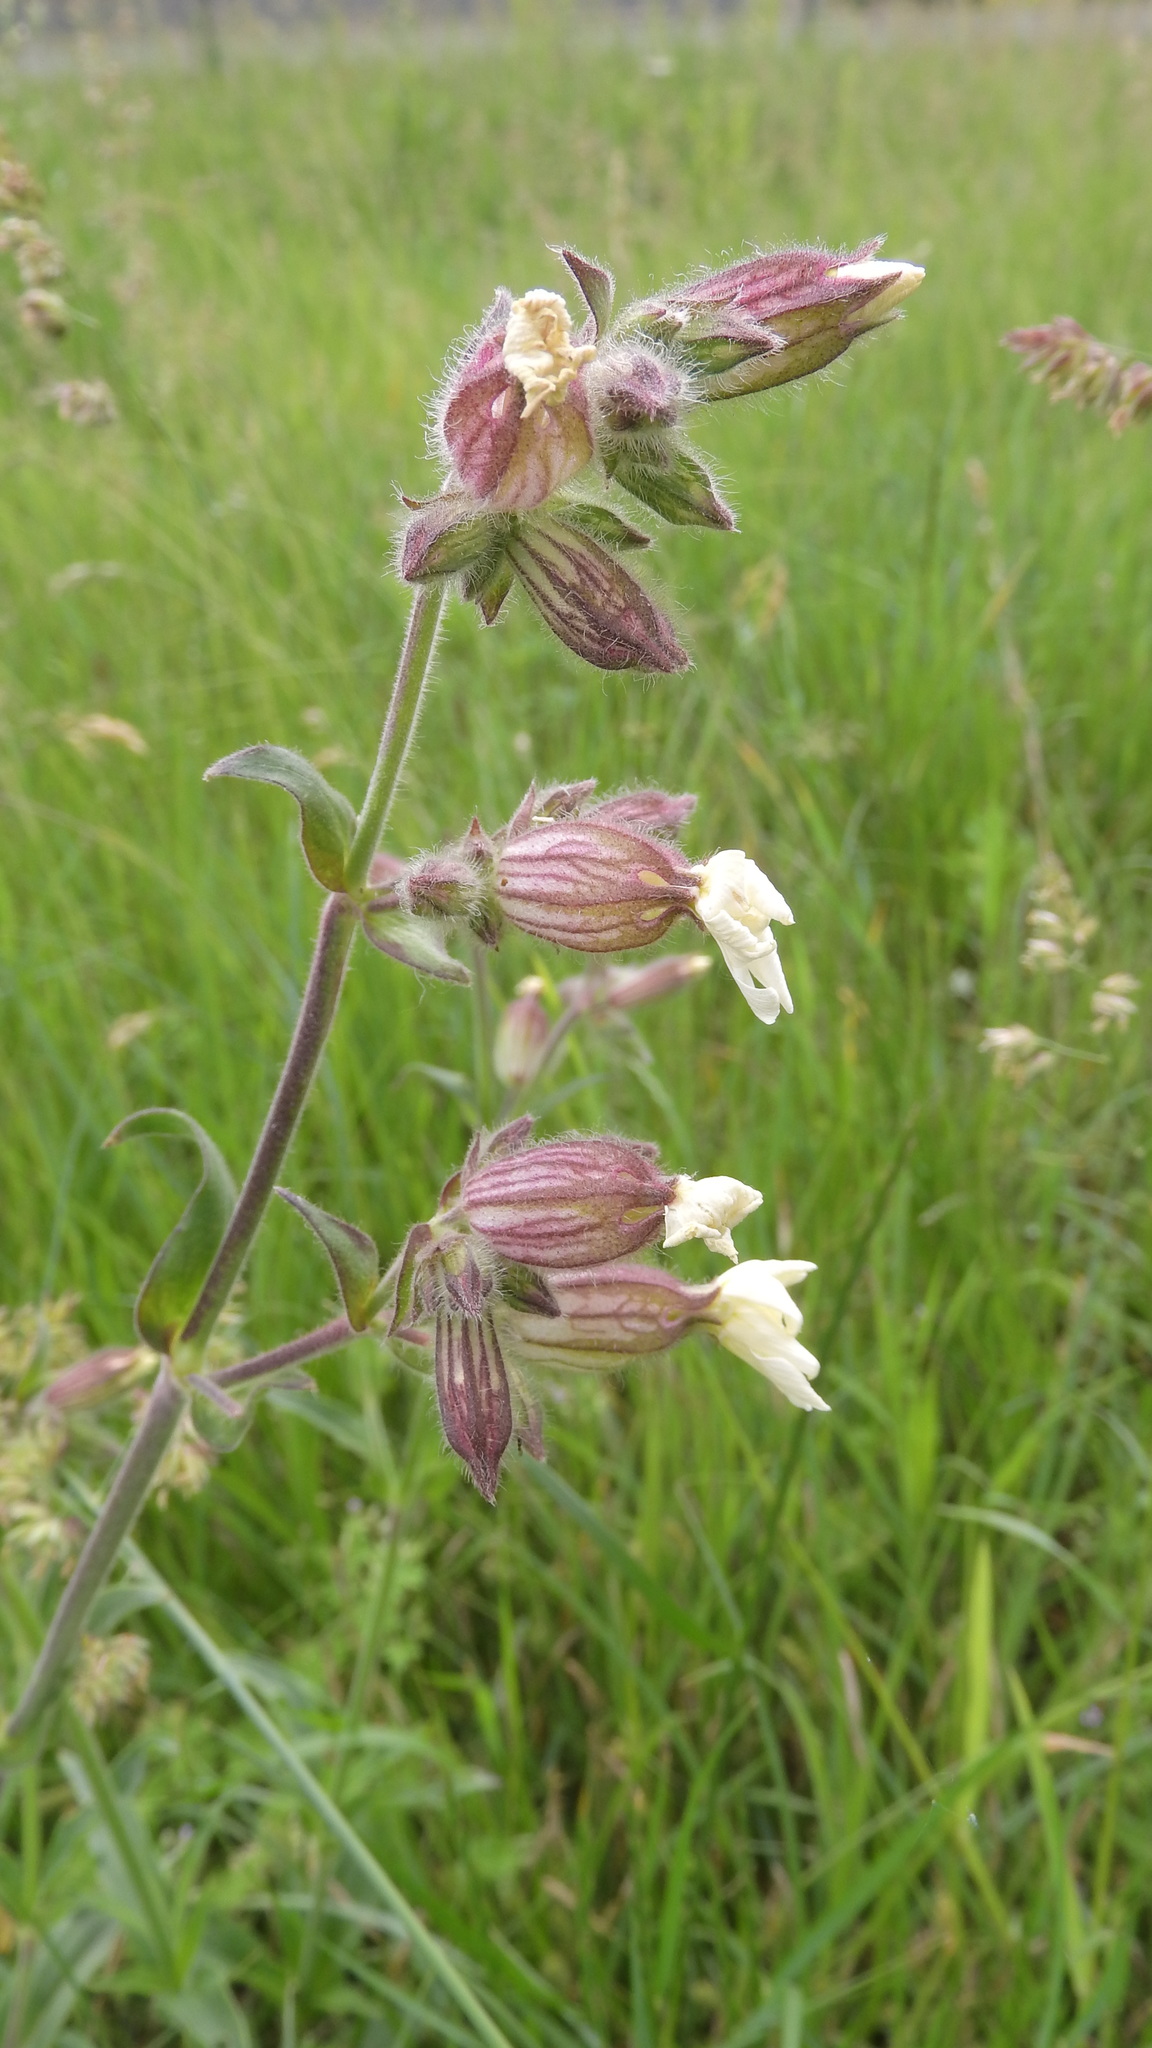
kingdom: Plantae
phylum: Tracheophyta
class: Magnoliopsida
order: Caryophyllales
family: Caryophyllaceae
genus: Silene
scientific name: Silene latifolia
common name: White campion
